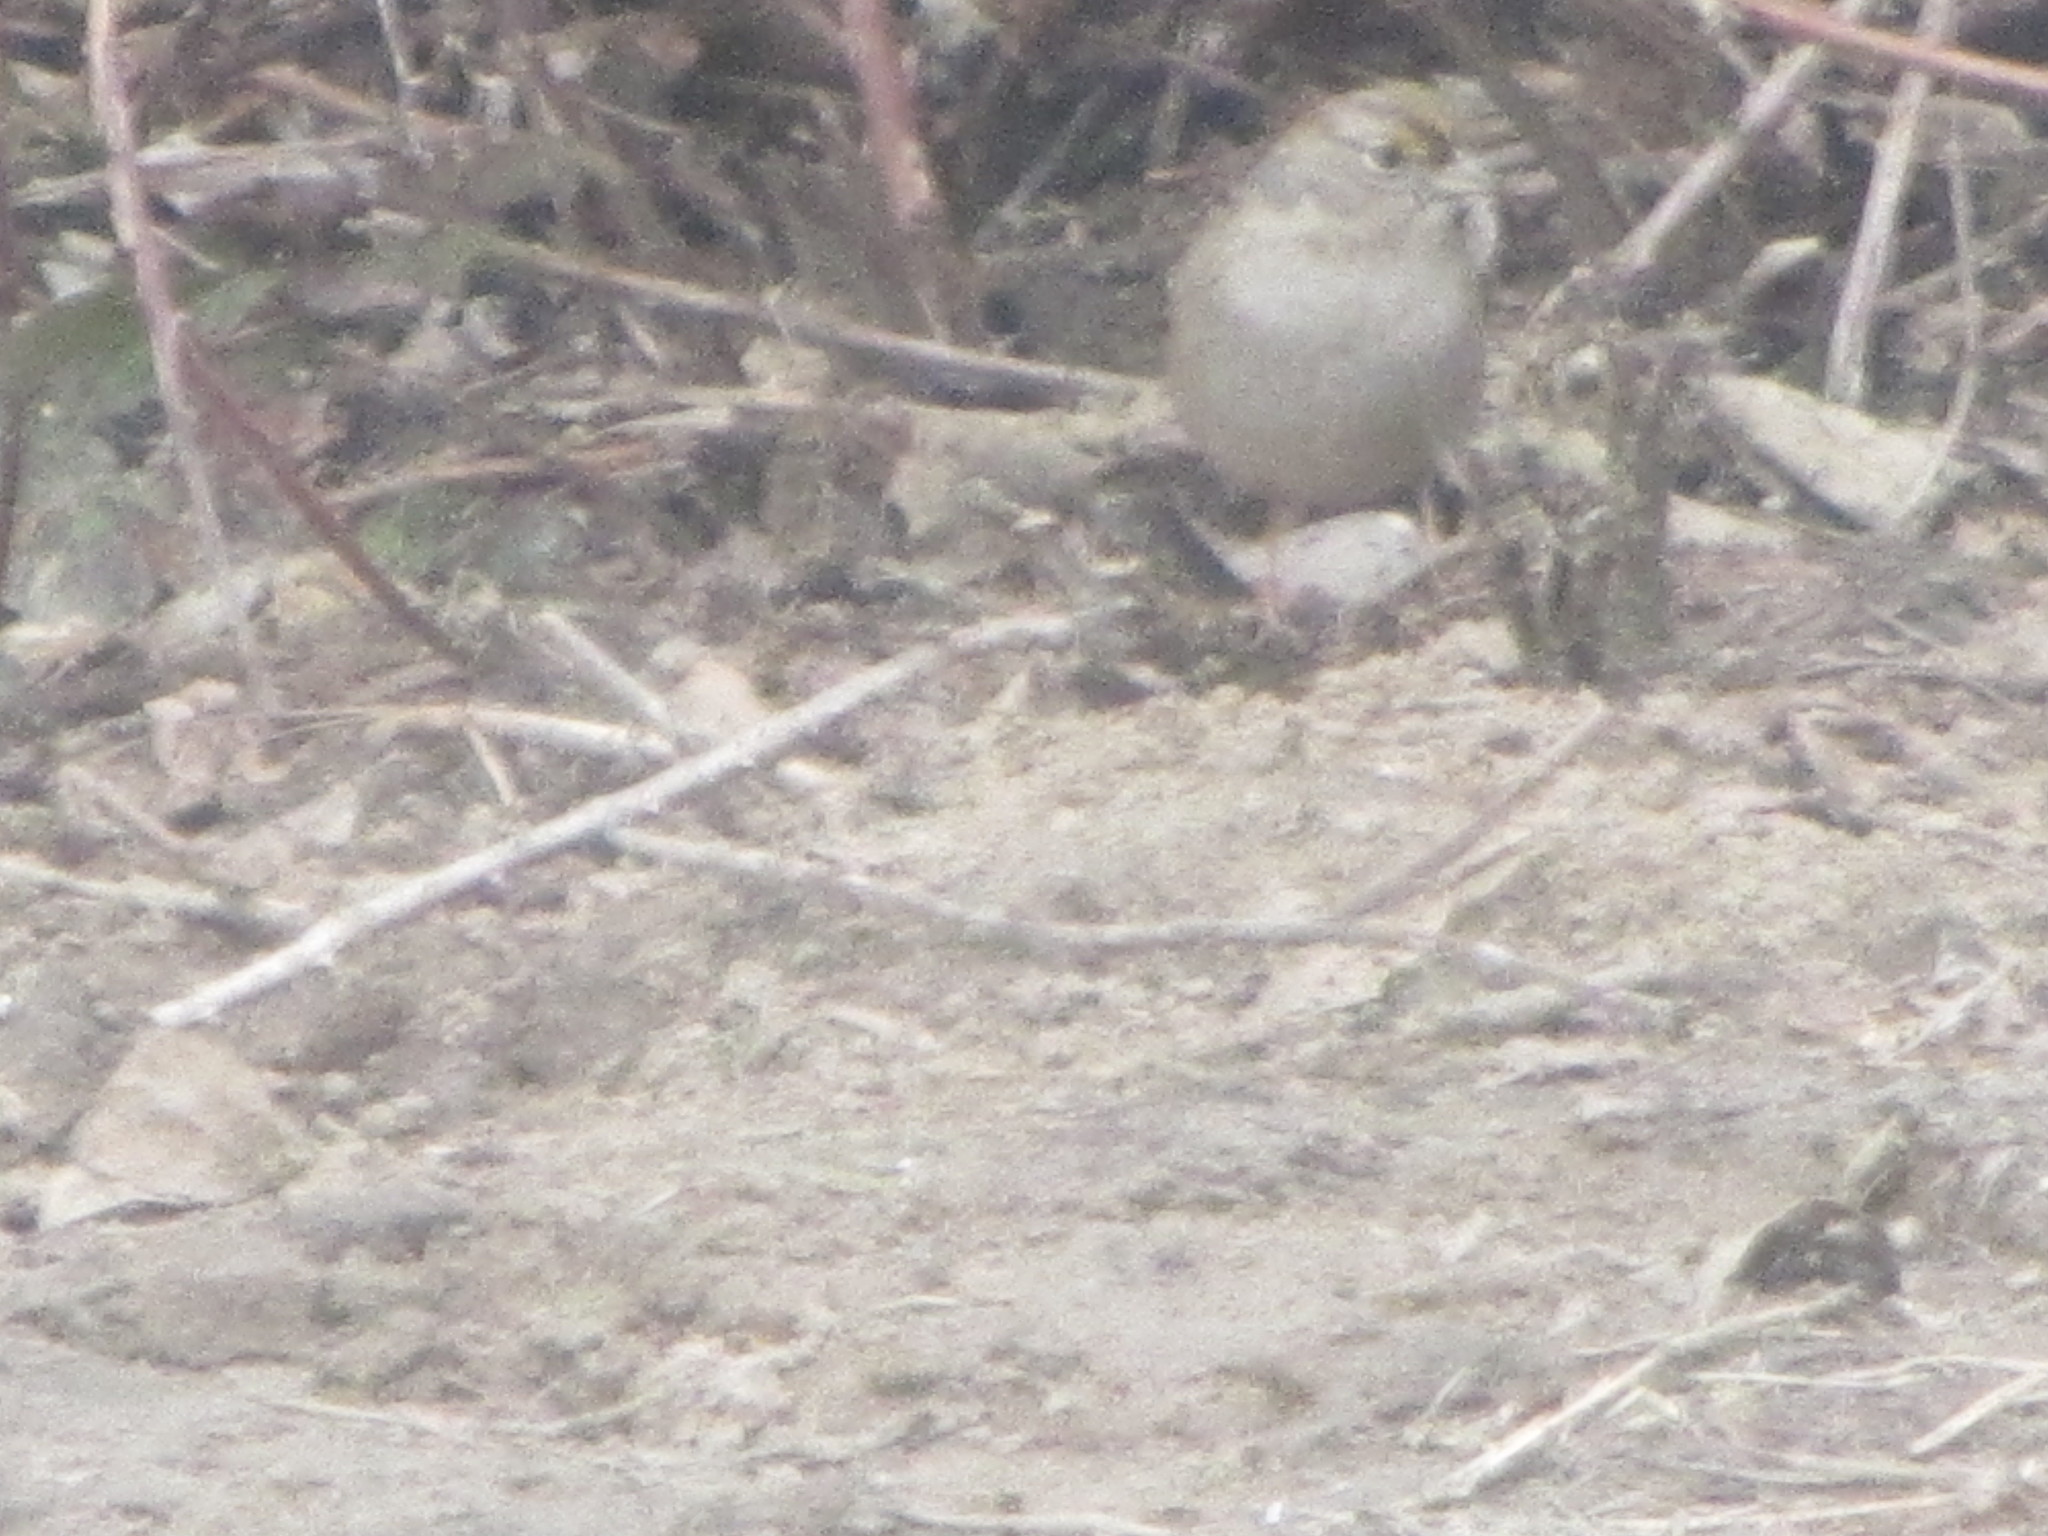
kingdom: Animalia
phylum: Chordata
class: Aves
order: Passeriformes
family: Passerellidae
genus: Zonotrichia
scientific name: Zonotrichia atricapilla
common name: Golden-crowned sparrow
